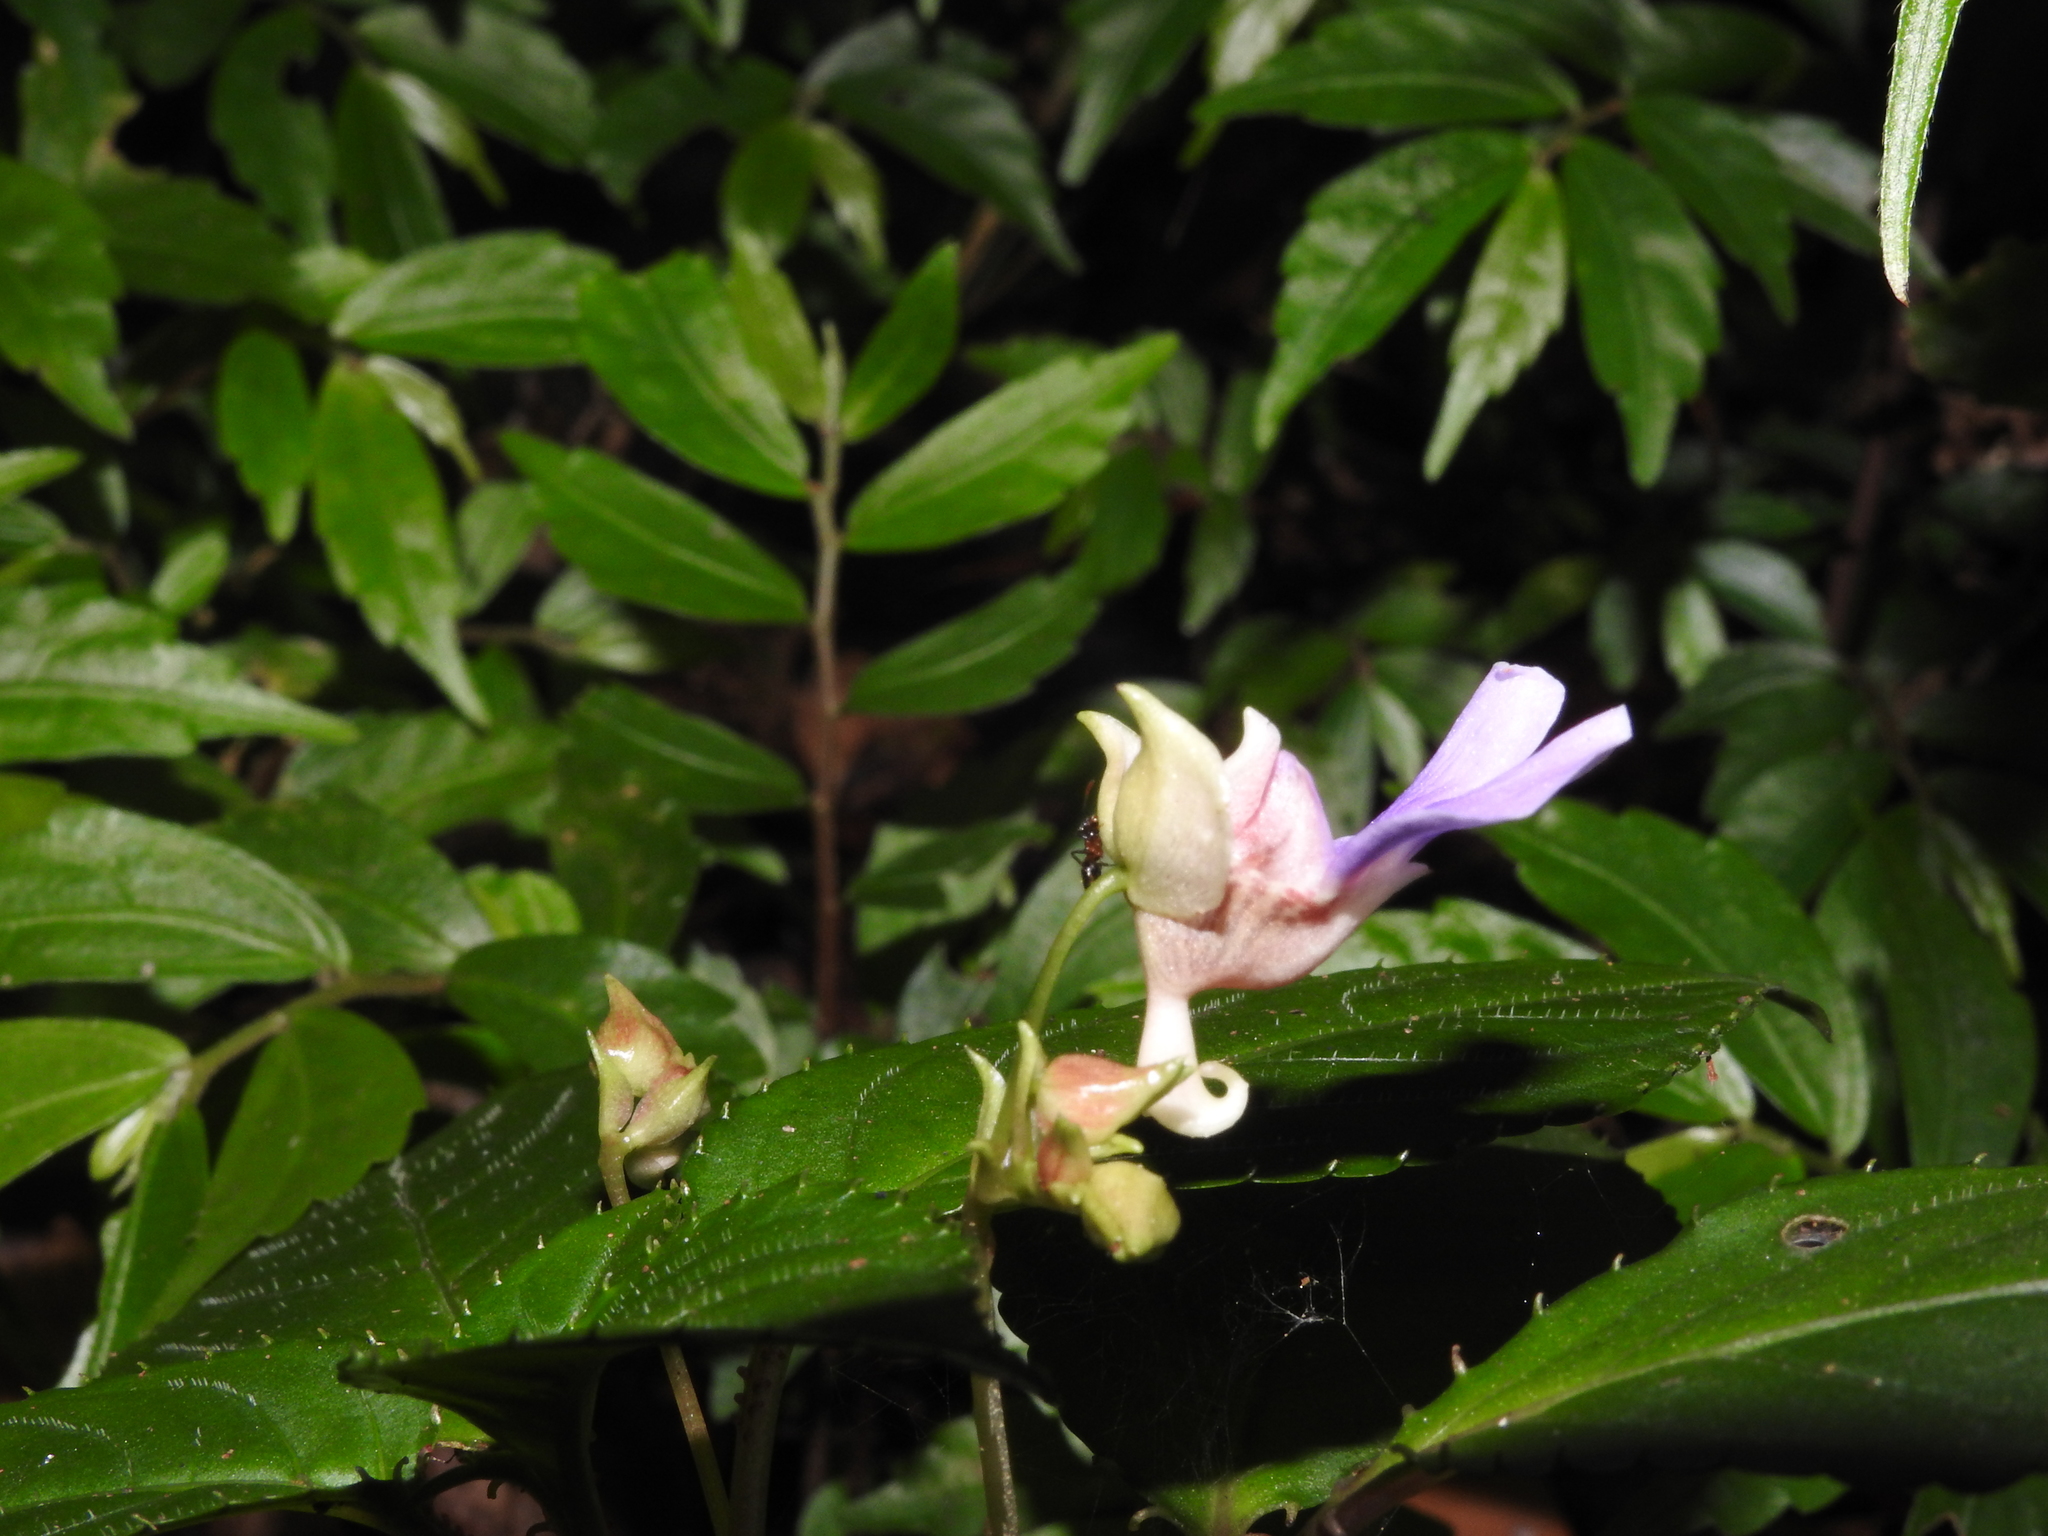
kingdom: Plantae
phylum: Tracheophyta
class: Magnoliopsida
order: Ericales
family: Balsaminaceae
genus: Impatiens
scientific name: Impatiens uncinata
